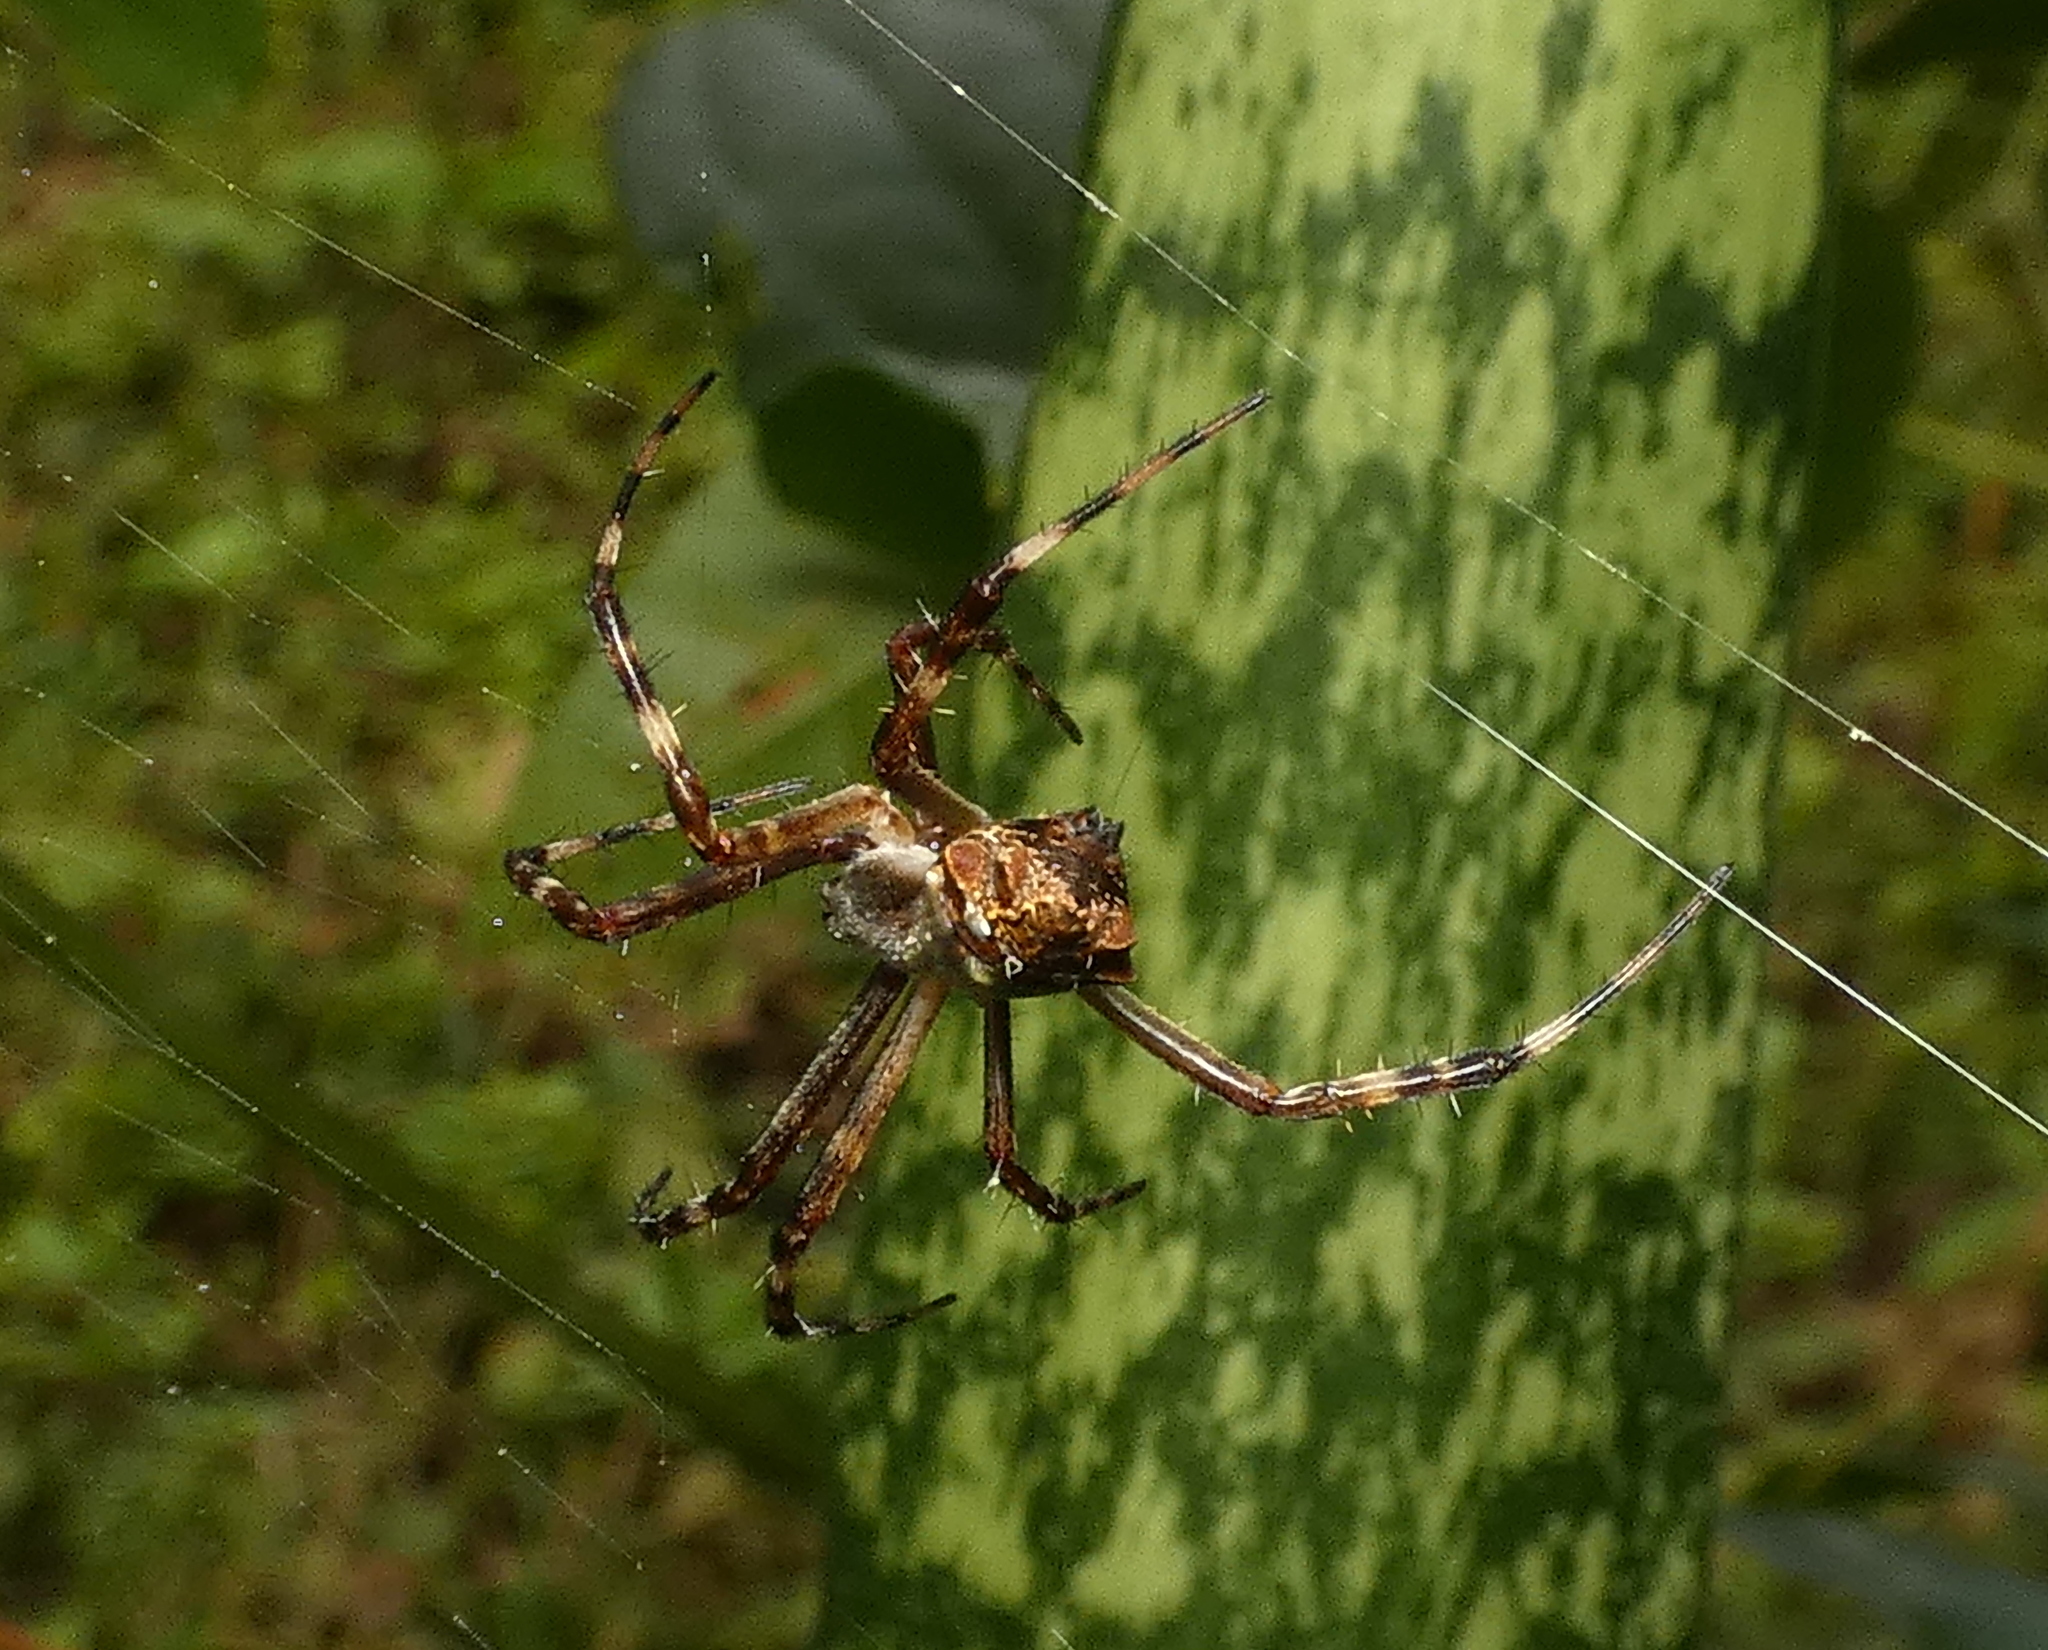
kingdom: Animalia
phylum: Arthropoda
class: Arachnida
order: Araneae
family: Araneidae
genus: Argiope
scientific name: Argiope argentata
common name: Orb weavers
